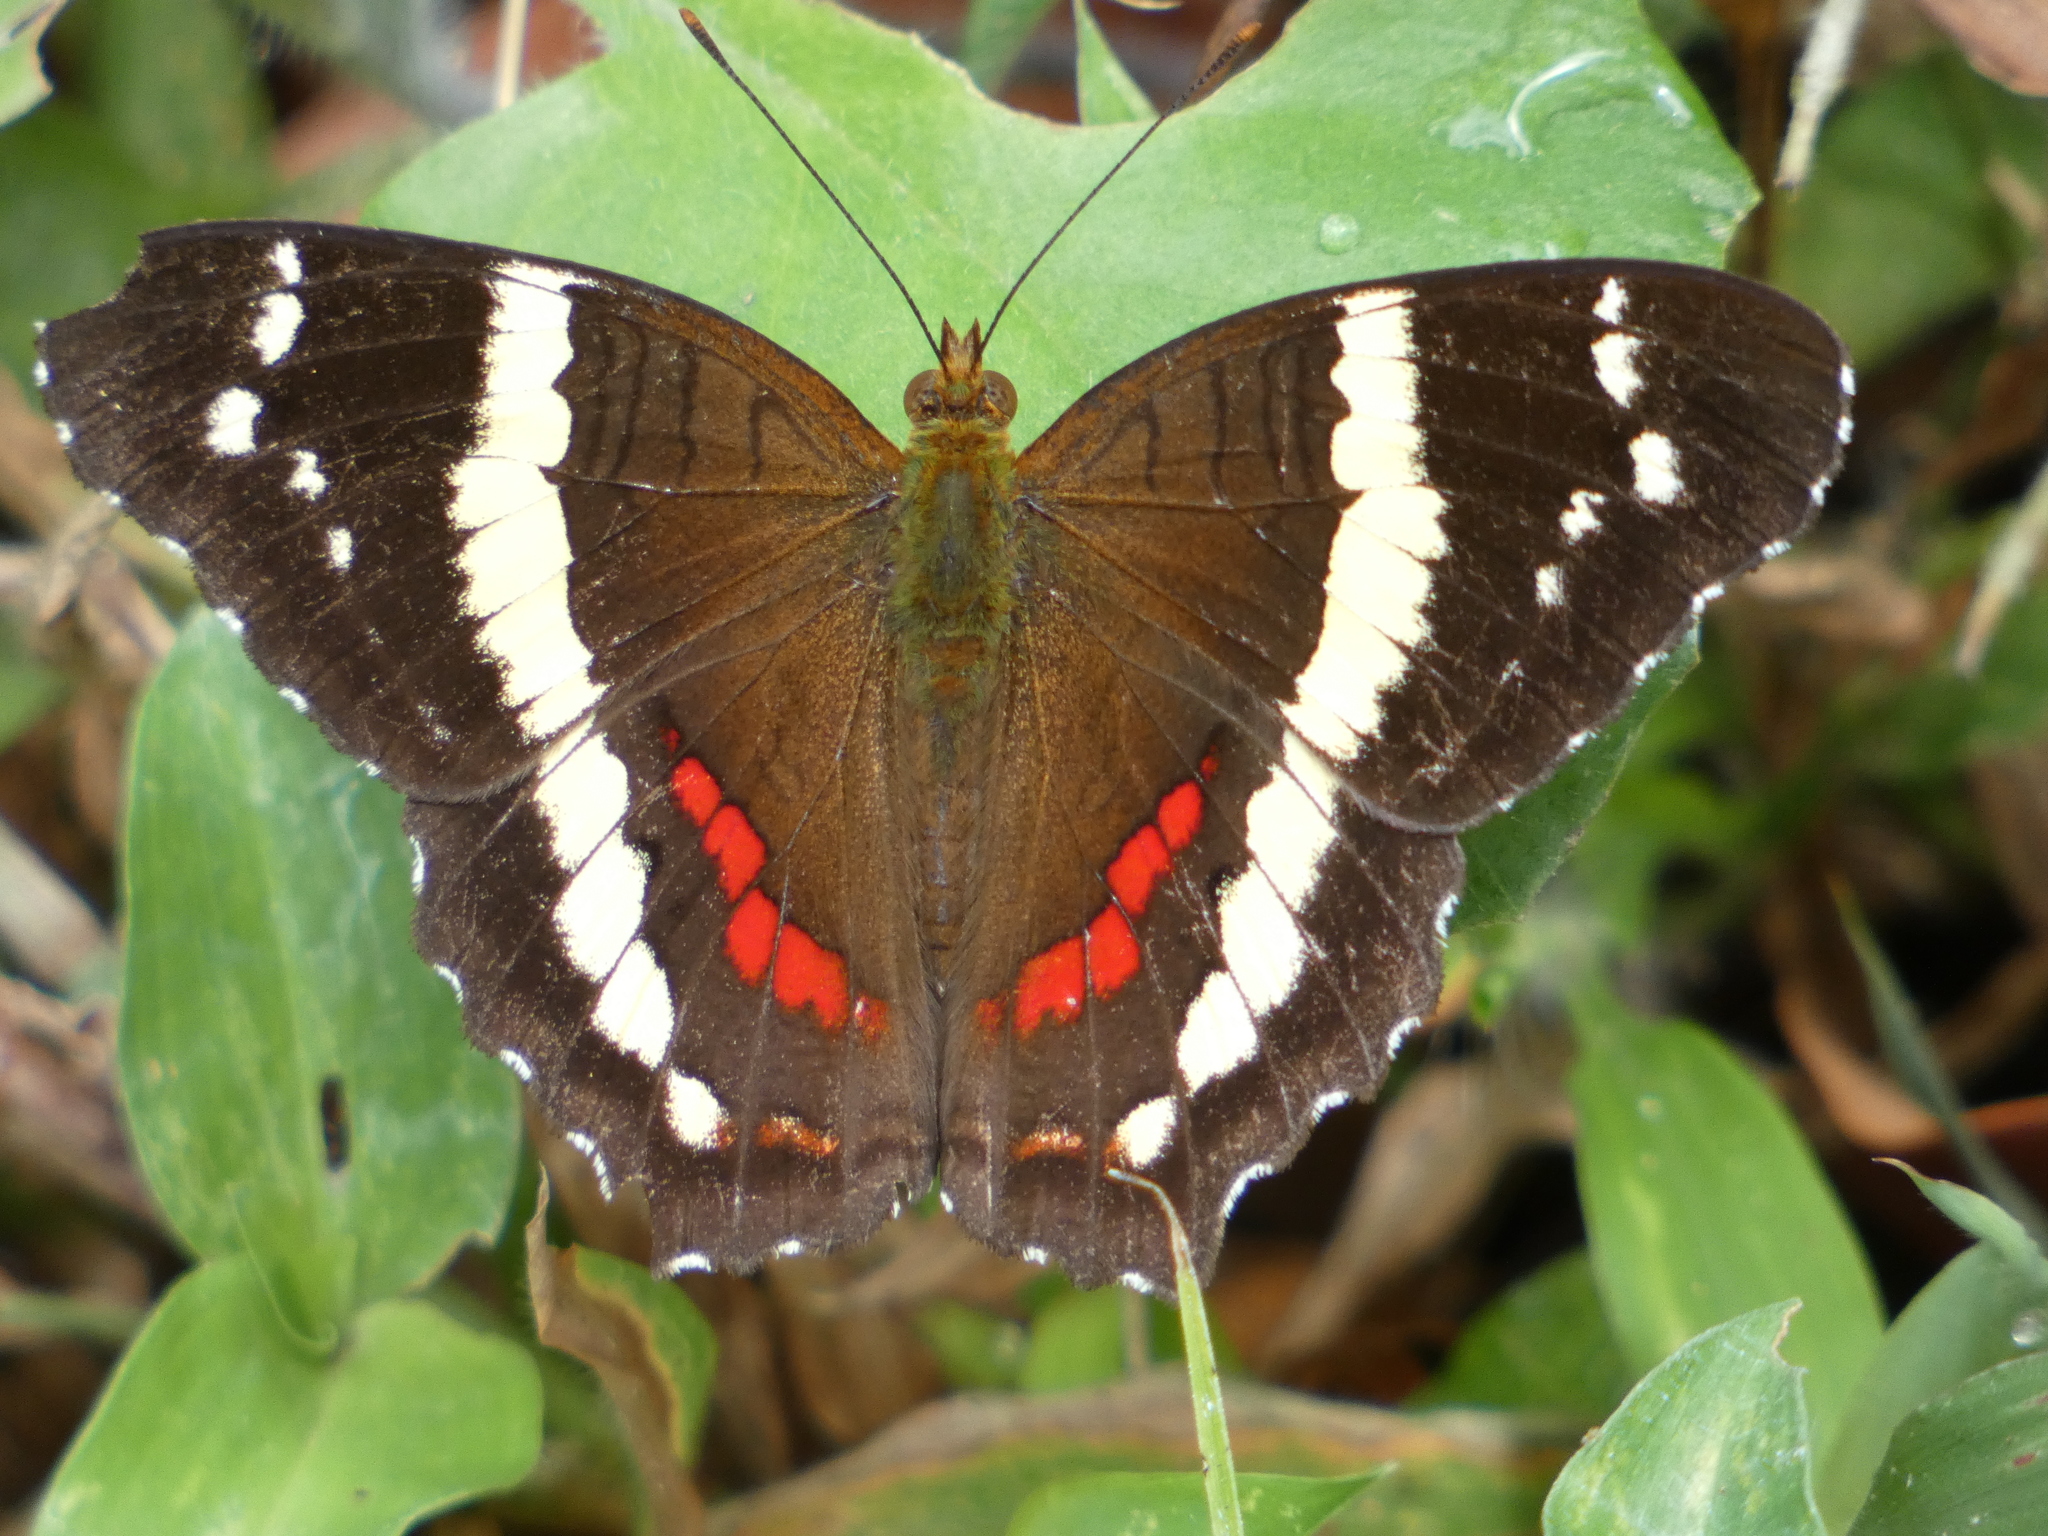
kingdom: Animalia
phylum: Arthropoda
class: Insecta
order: Lepidoptera
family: Nymphalidae
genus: Anartia
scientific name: Anartia fatima
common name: Banded peacock
